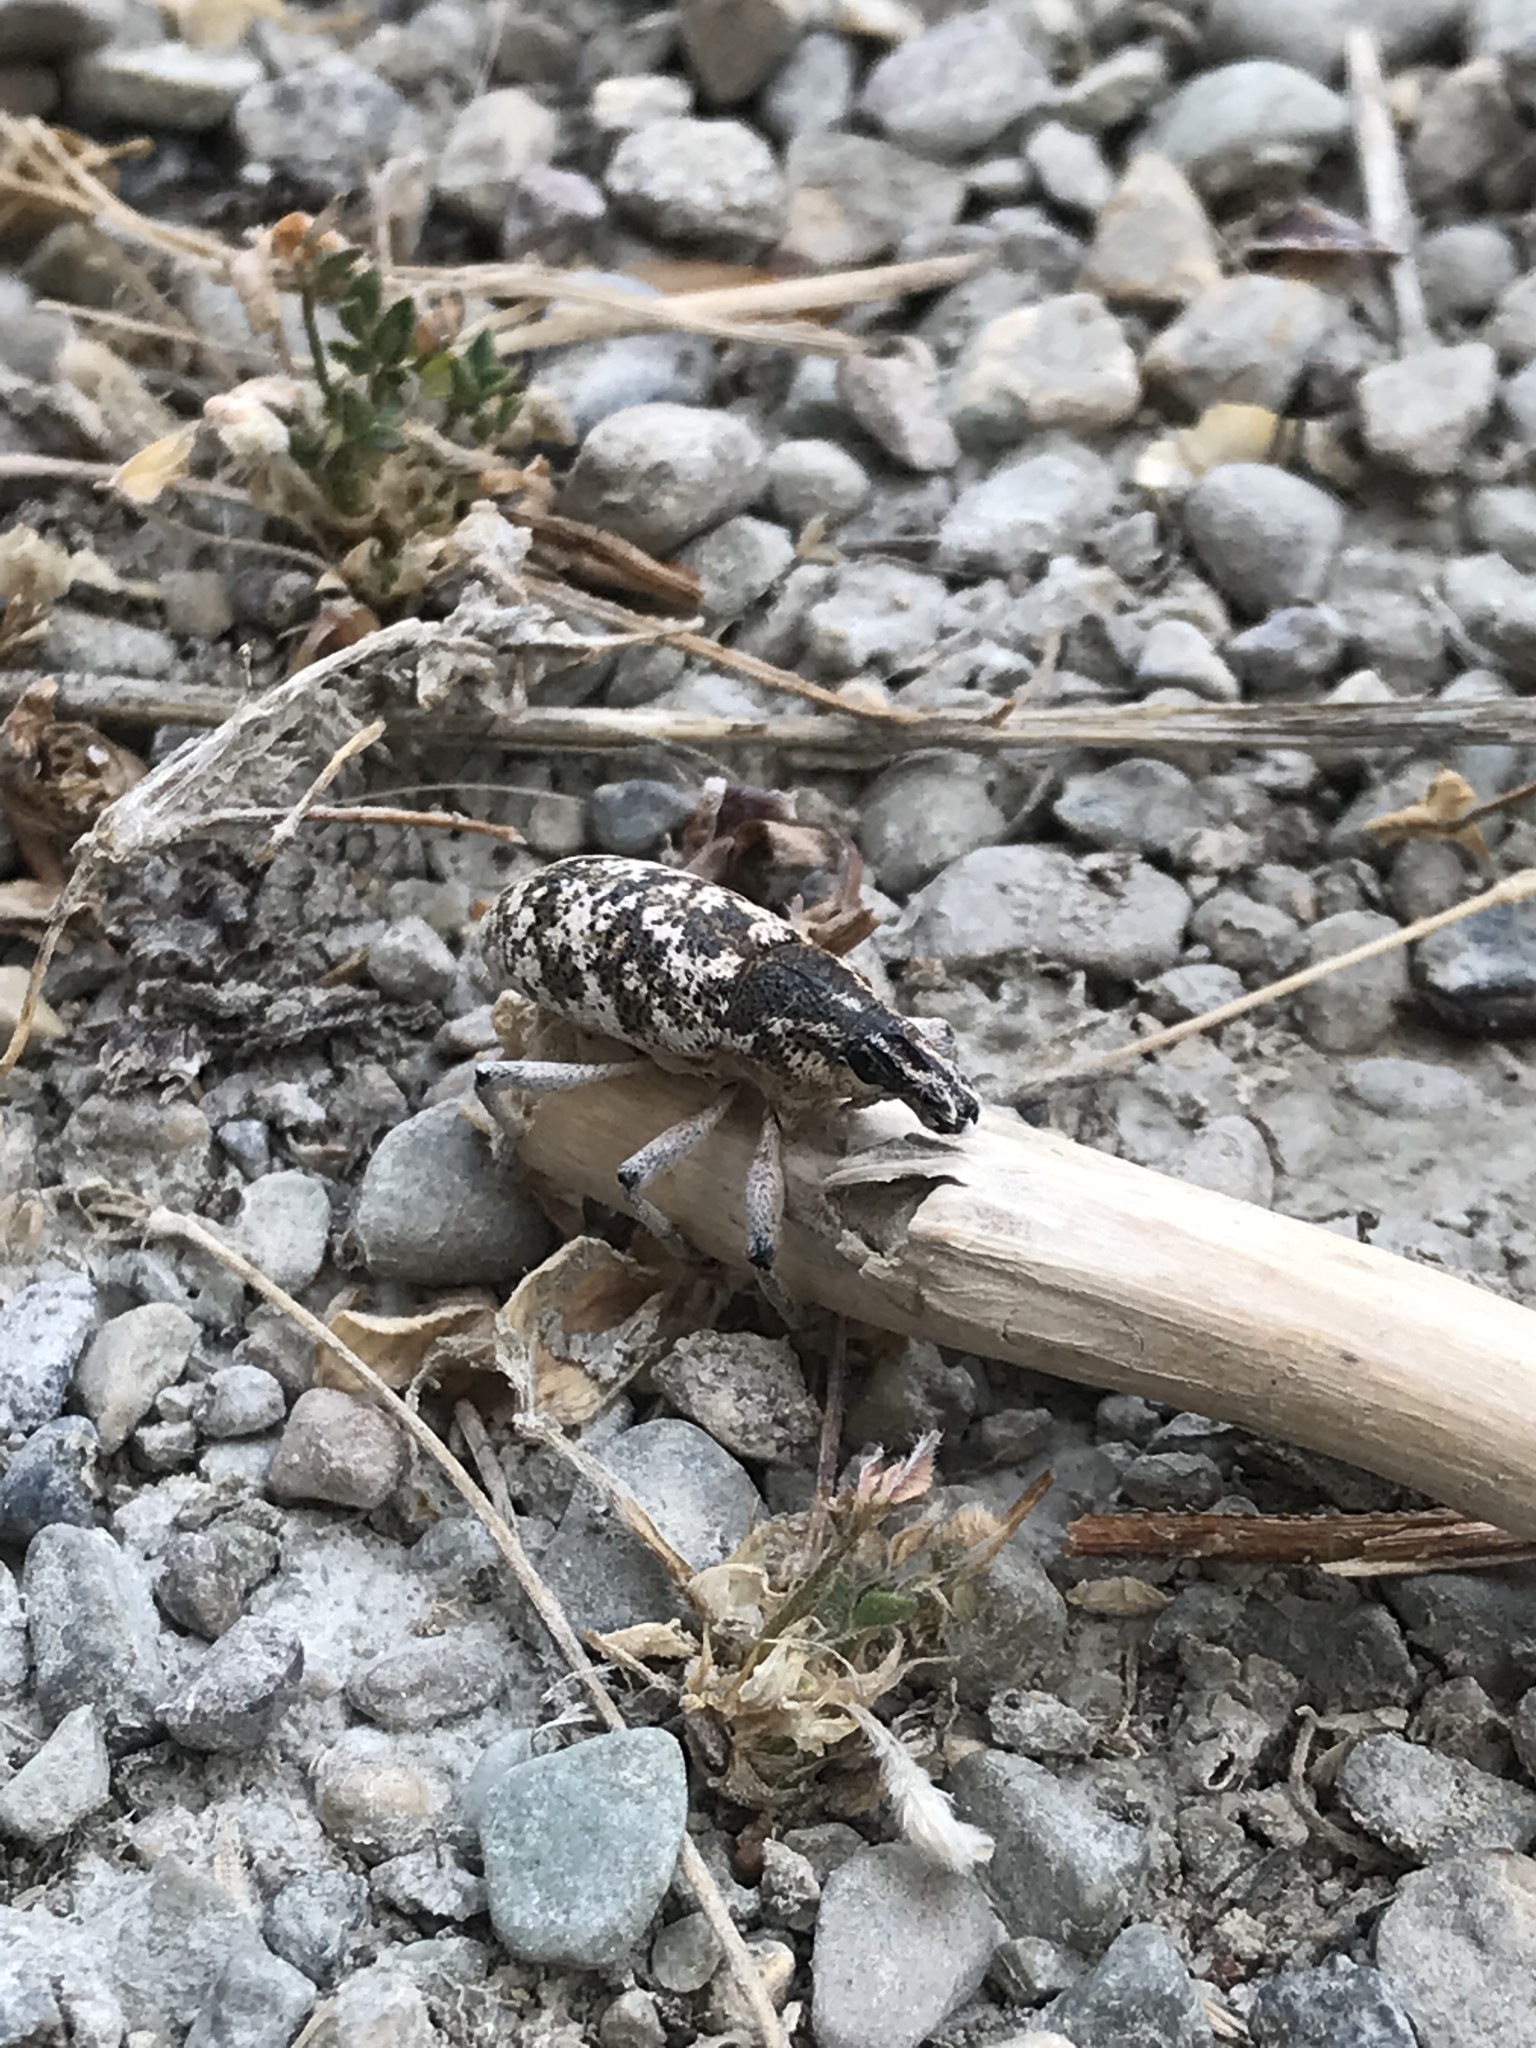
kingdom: Animalia
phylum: Arthropoda
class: Insecta
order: Coleoptera
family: Curculionidae
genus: Cleonus
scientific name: Cleonus achates
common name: Root weevil
